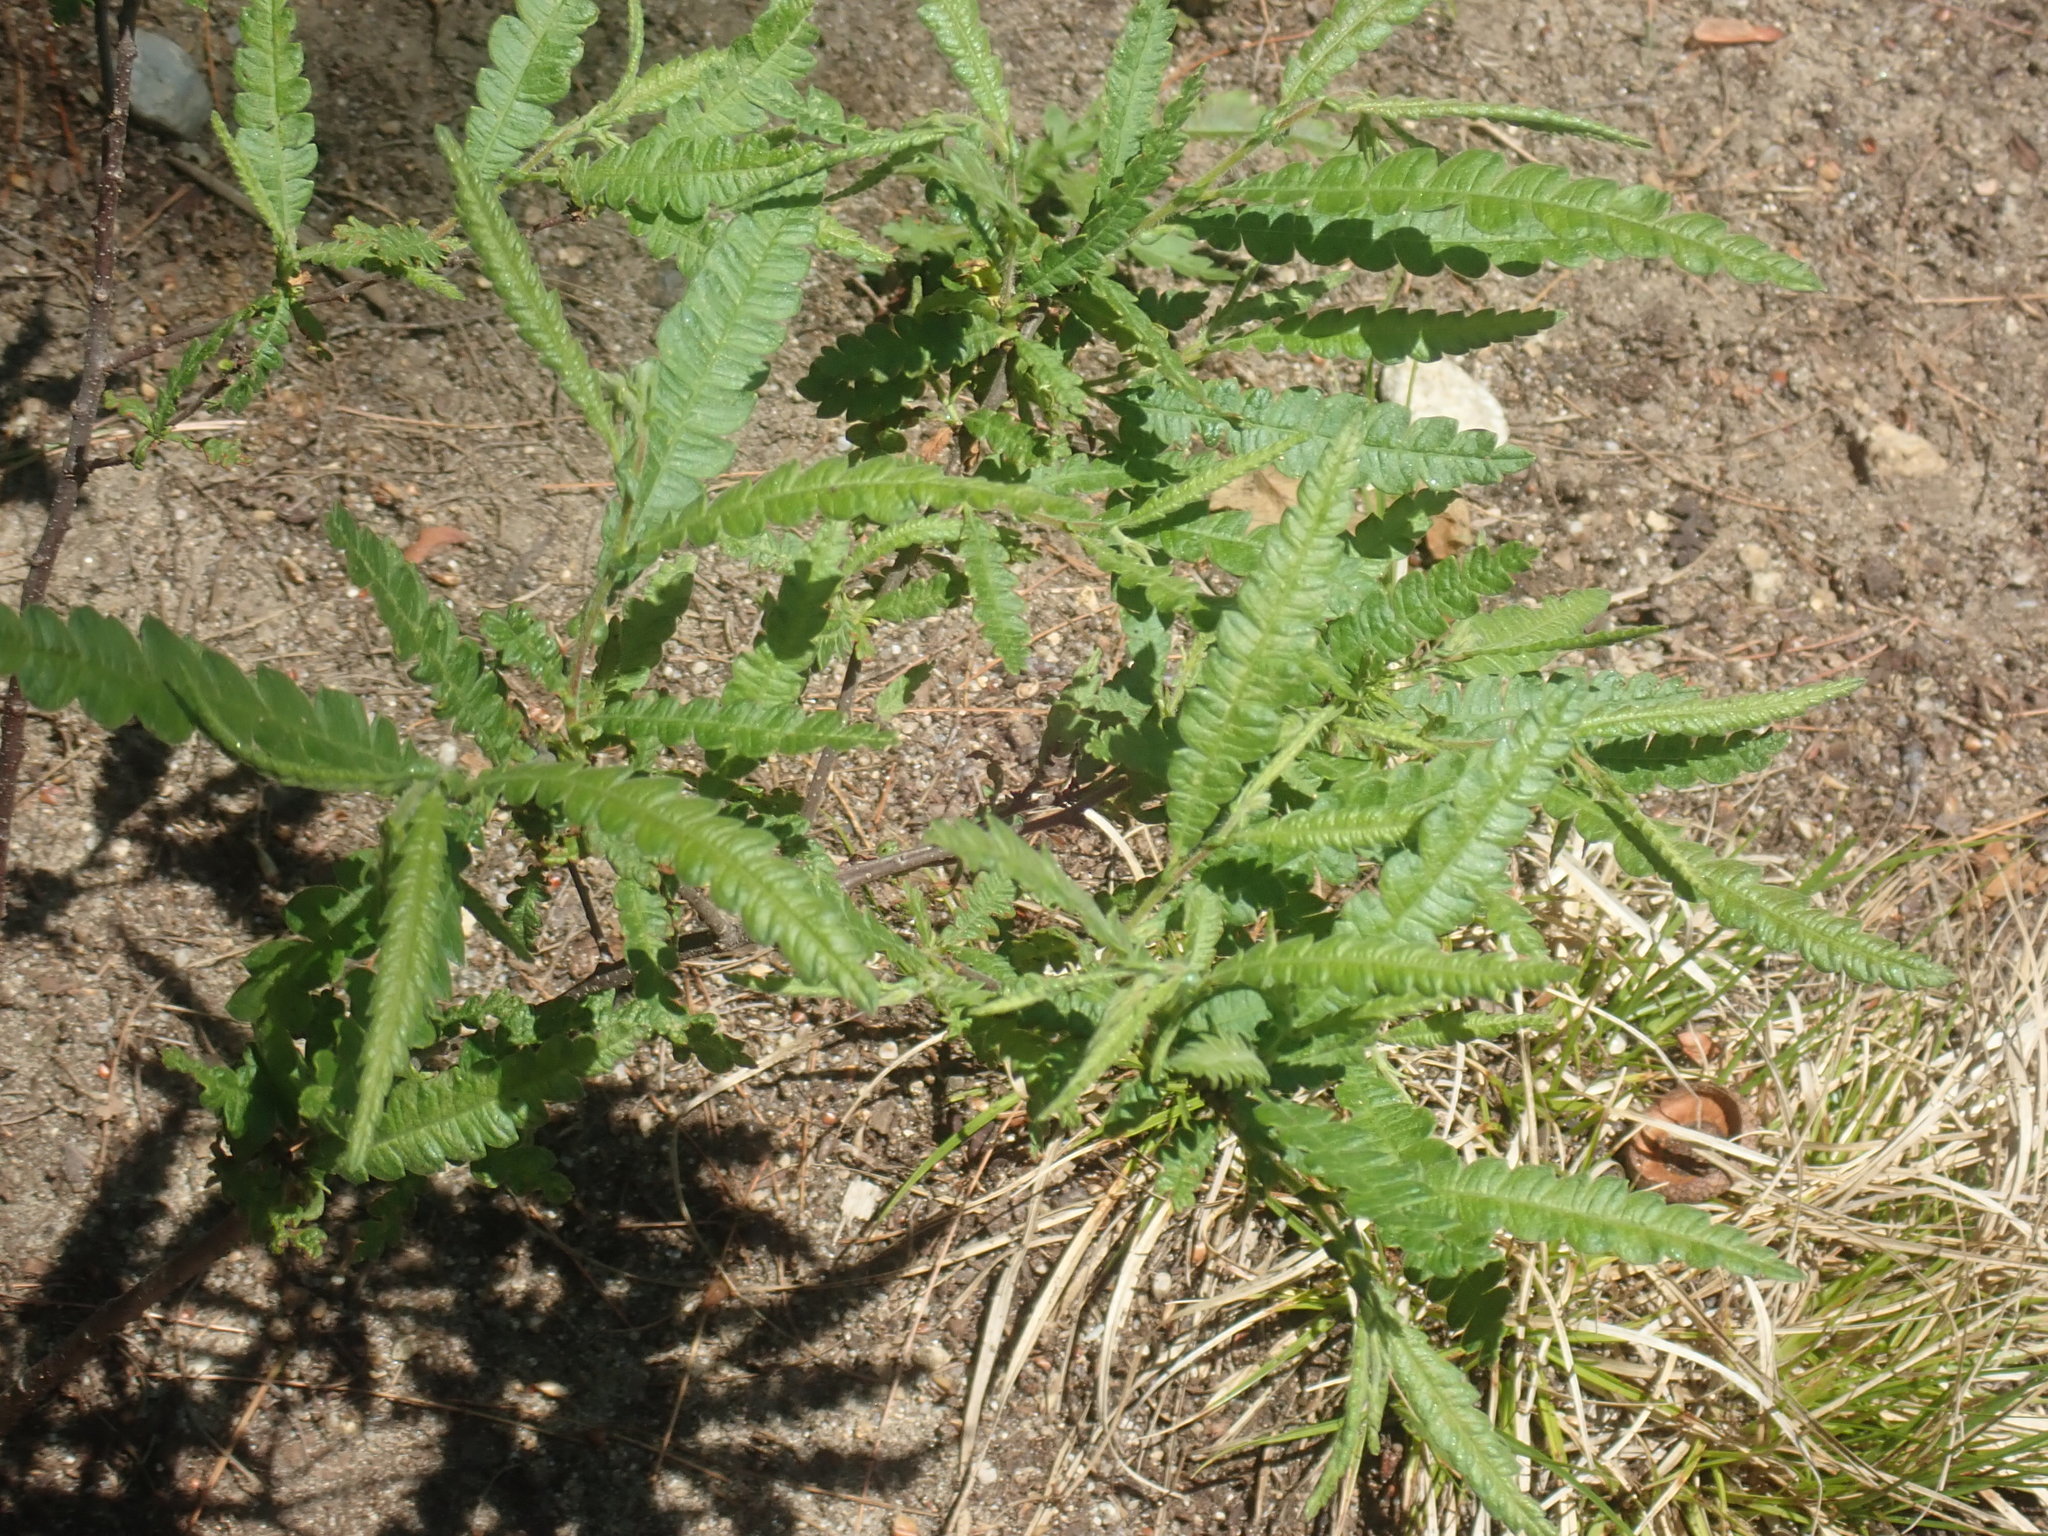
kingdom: Plantae
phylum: Tracheophyta
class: Magnoliopsida
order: Fagales
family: Myricaceae
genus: Comptonia
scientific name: Comptonia peregrina
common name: Sweet-fern
